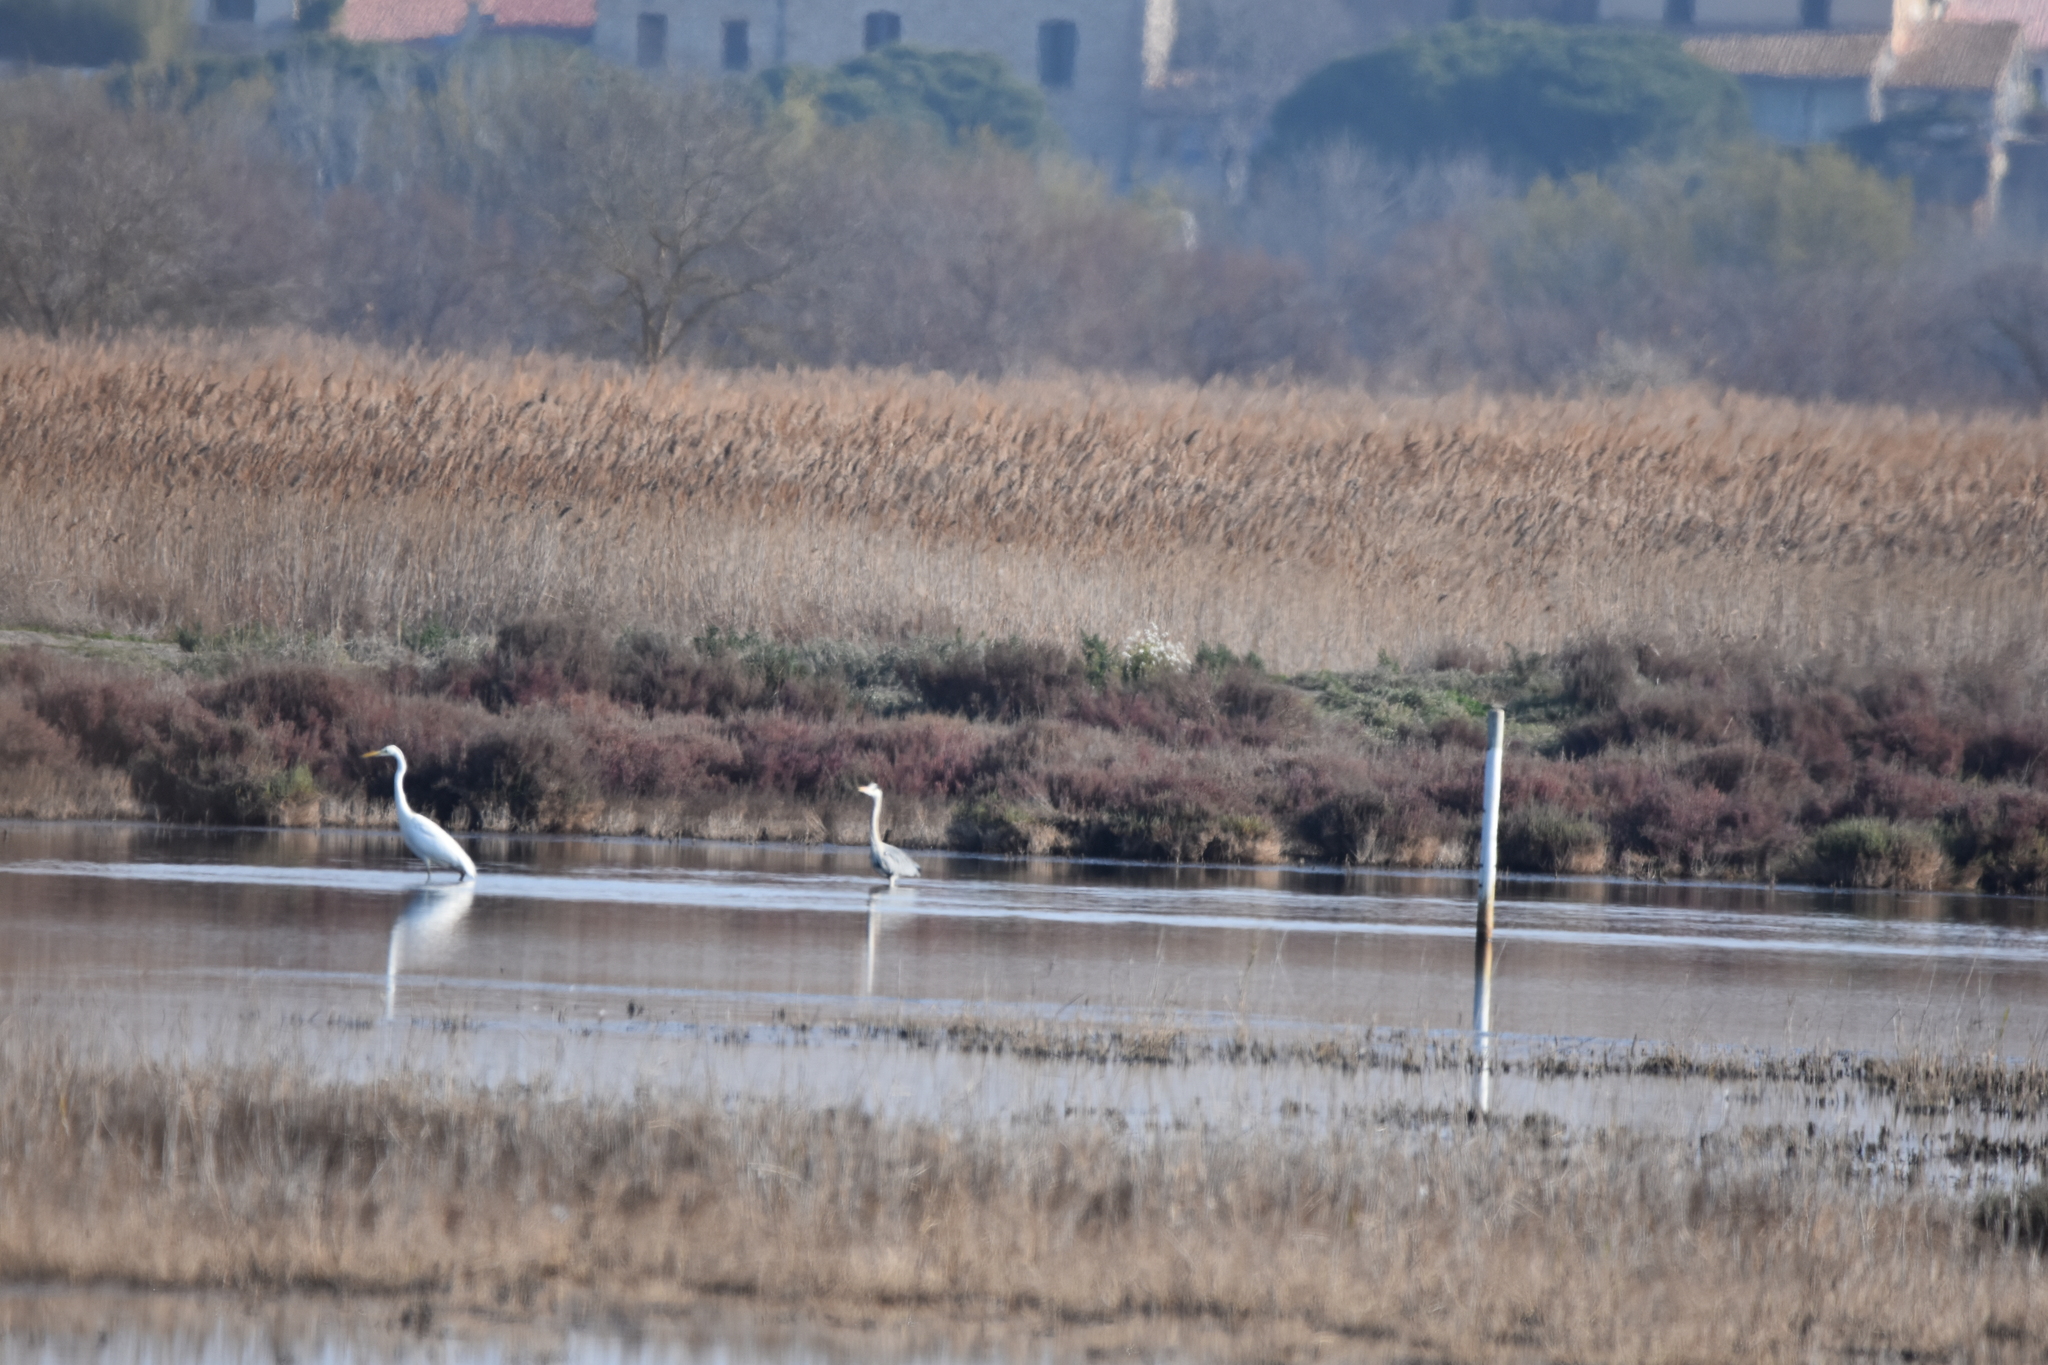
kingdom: Animalia
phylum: Chordata
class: Aves
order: Pelecaniformes
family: Ardeidae
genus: Ardea
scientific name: Ardea cinerea
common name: Grey heron
